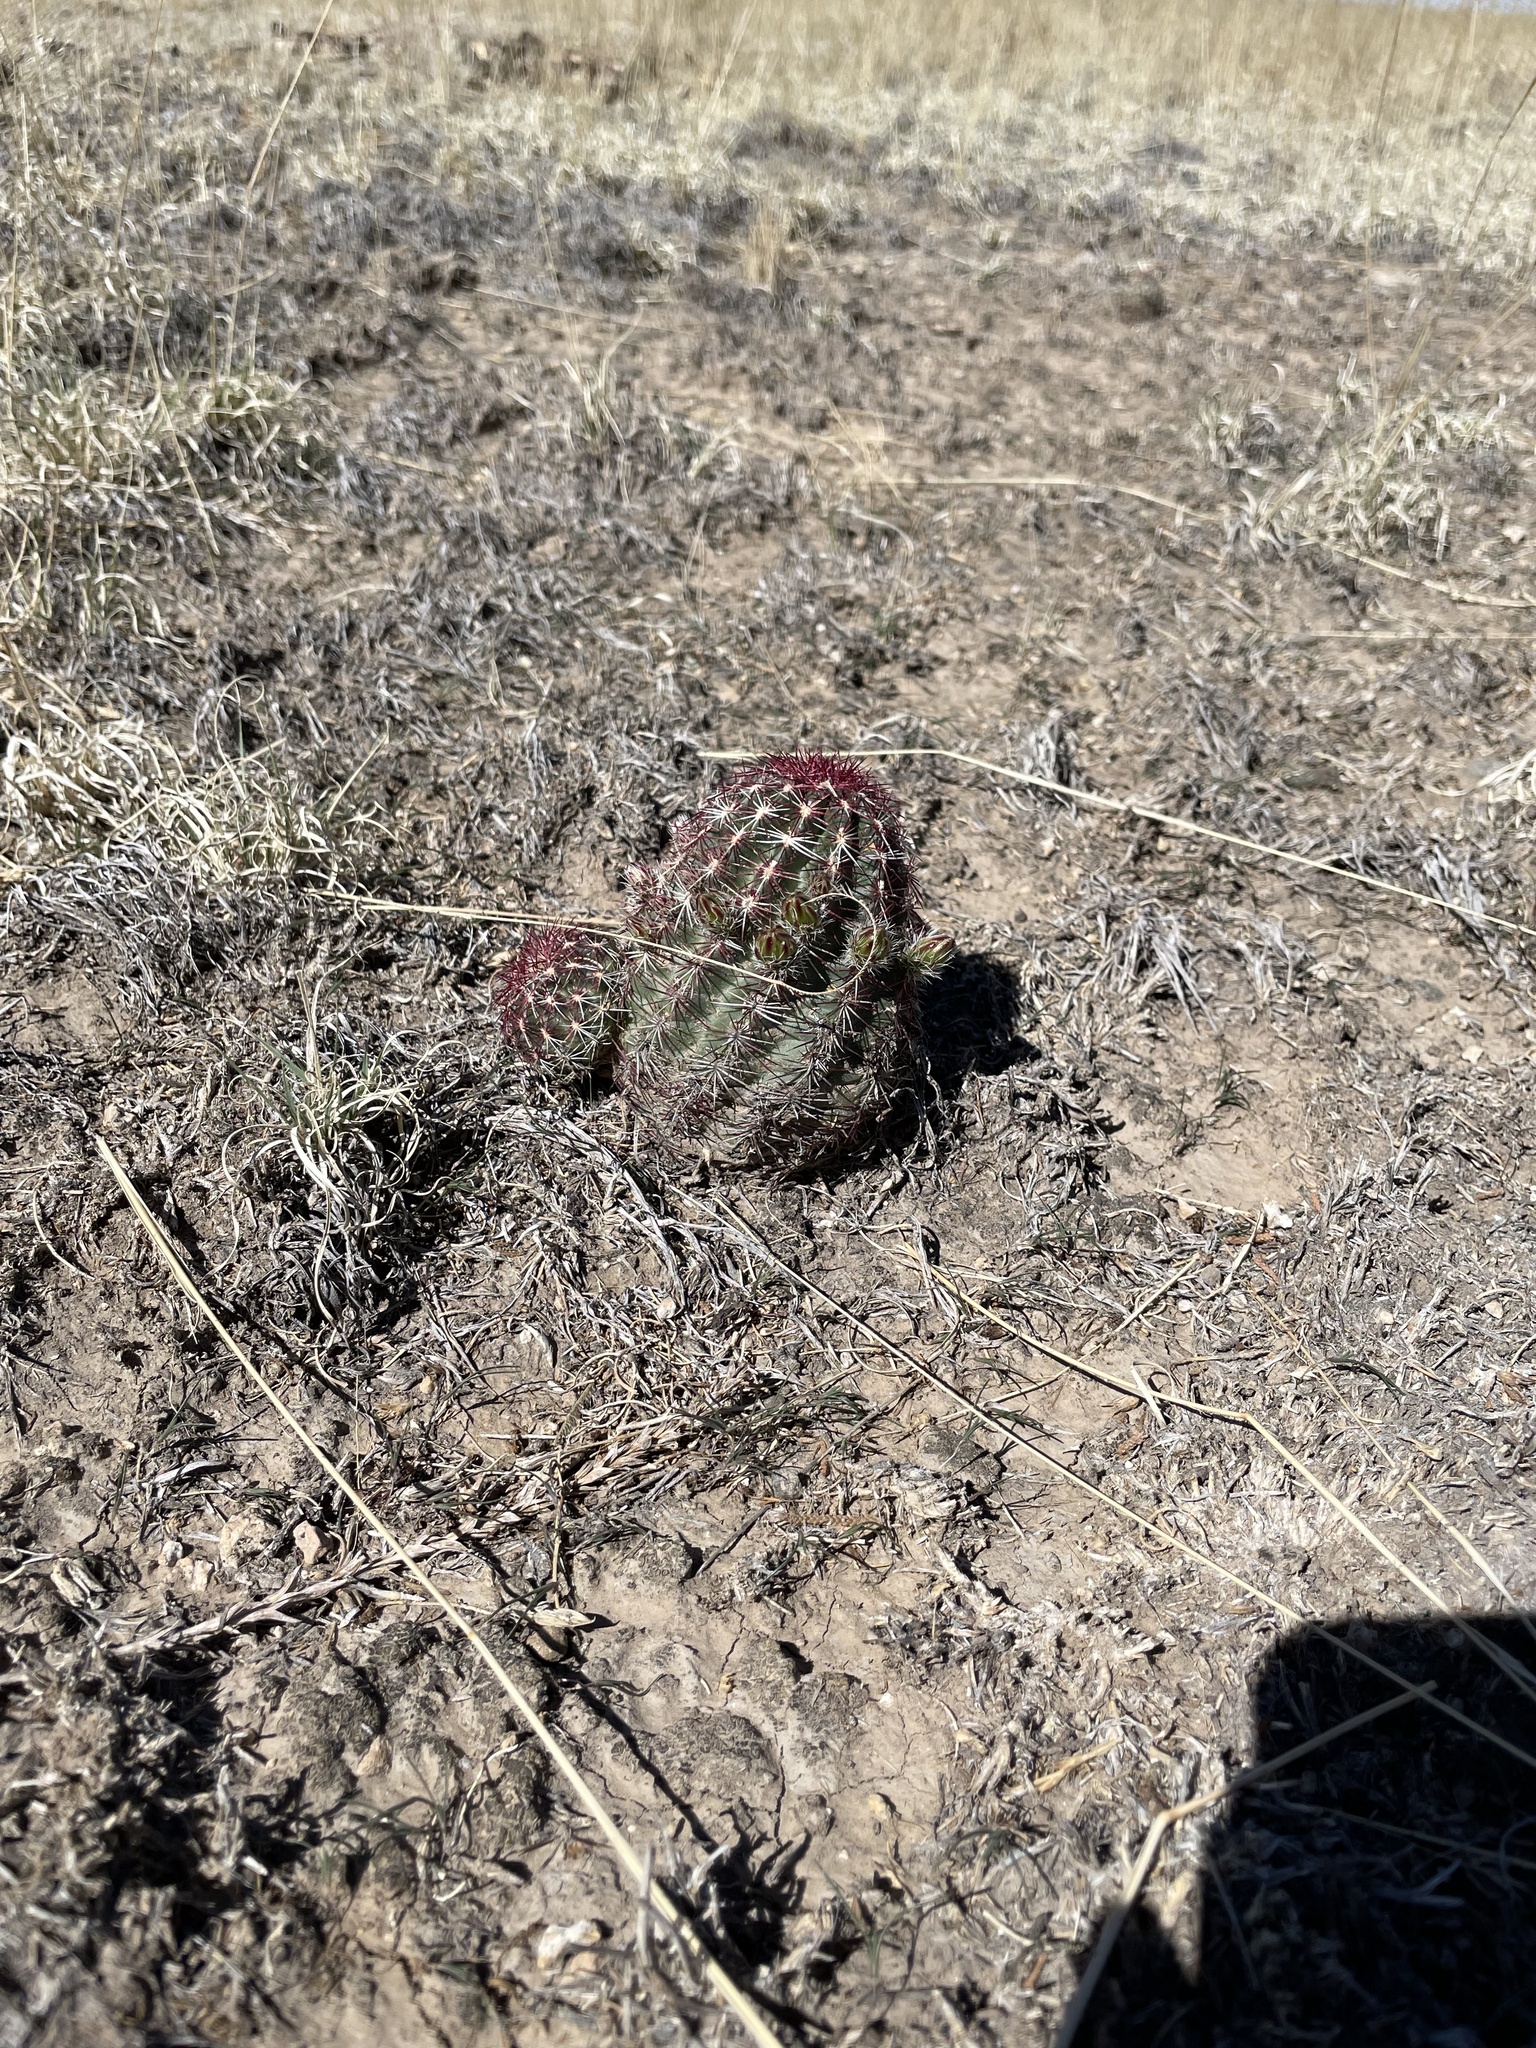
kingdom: Plantae
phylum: Tracheophyta
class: Magnoliopsida
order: Caryophyllales
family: Cactaceae
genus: Echinocereus
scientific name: Echinocereus viridiflorus
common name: Nylon hedgehog cactus
